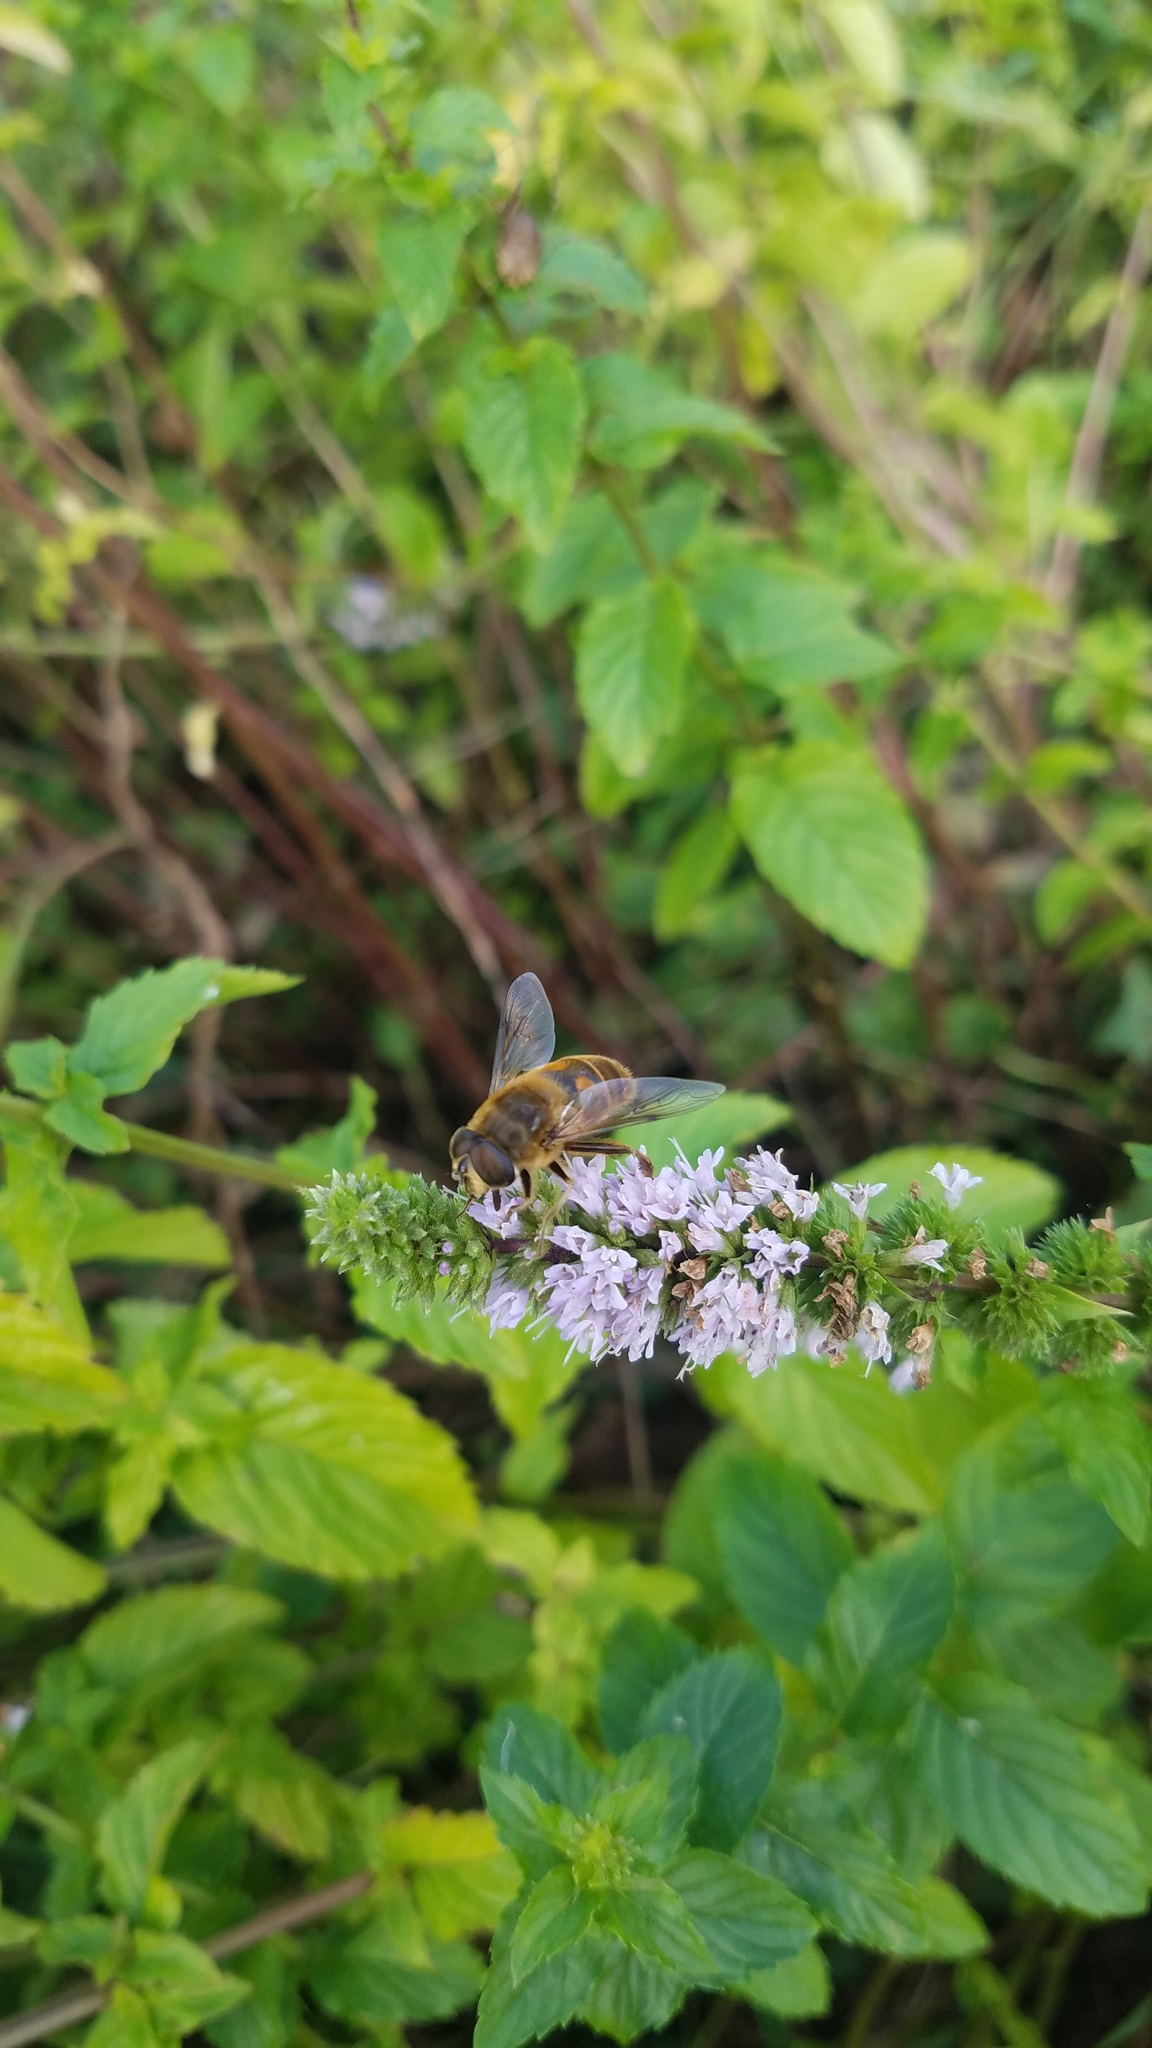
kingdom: Animalia
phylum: Arthropoda
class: Insecta
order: Diptera
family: Syrphidae
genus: Eristalis
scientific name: Eristalis tenax
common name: Drone fly
